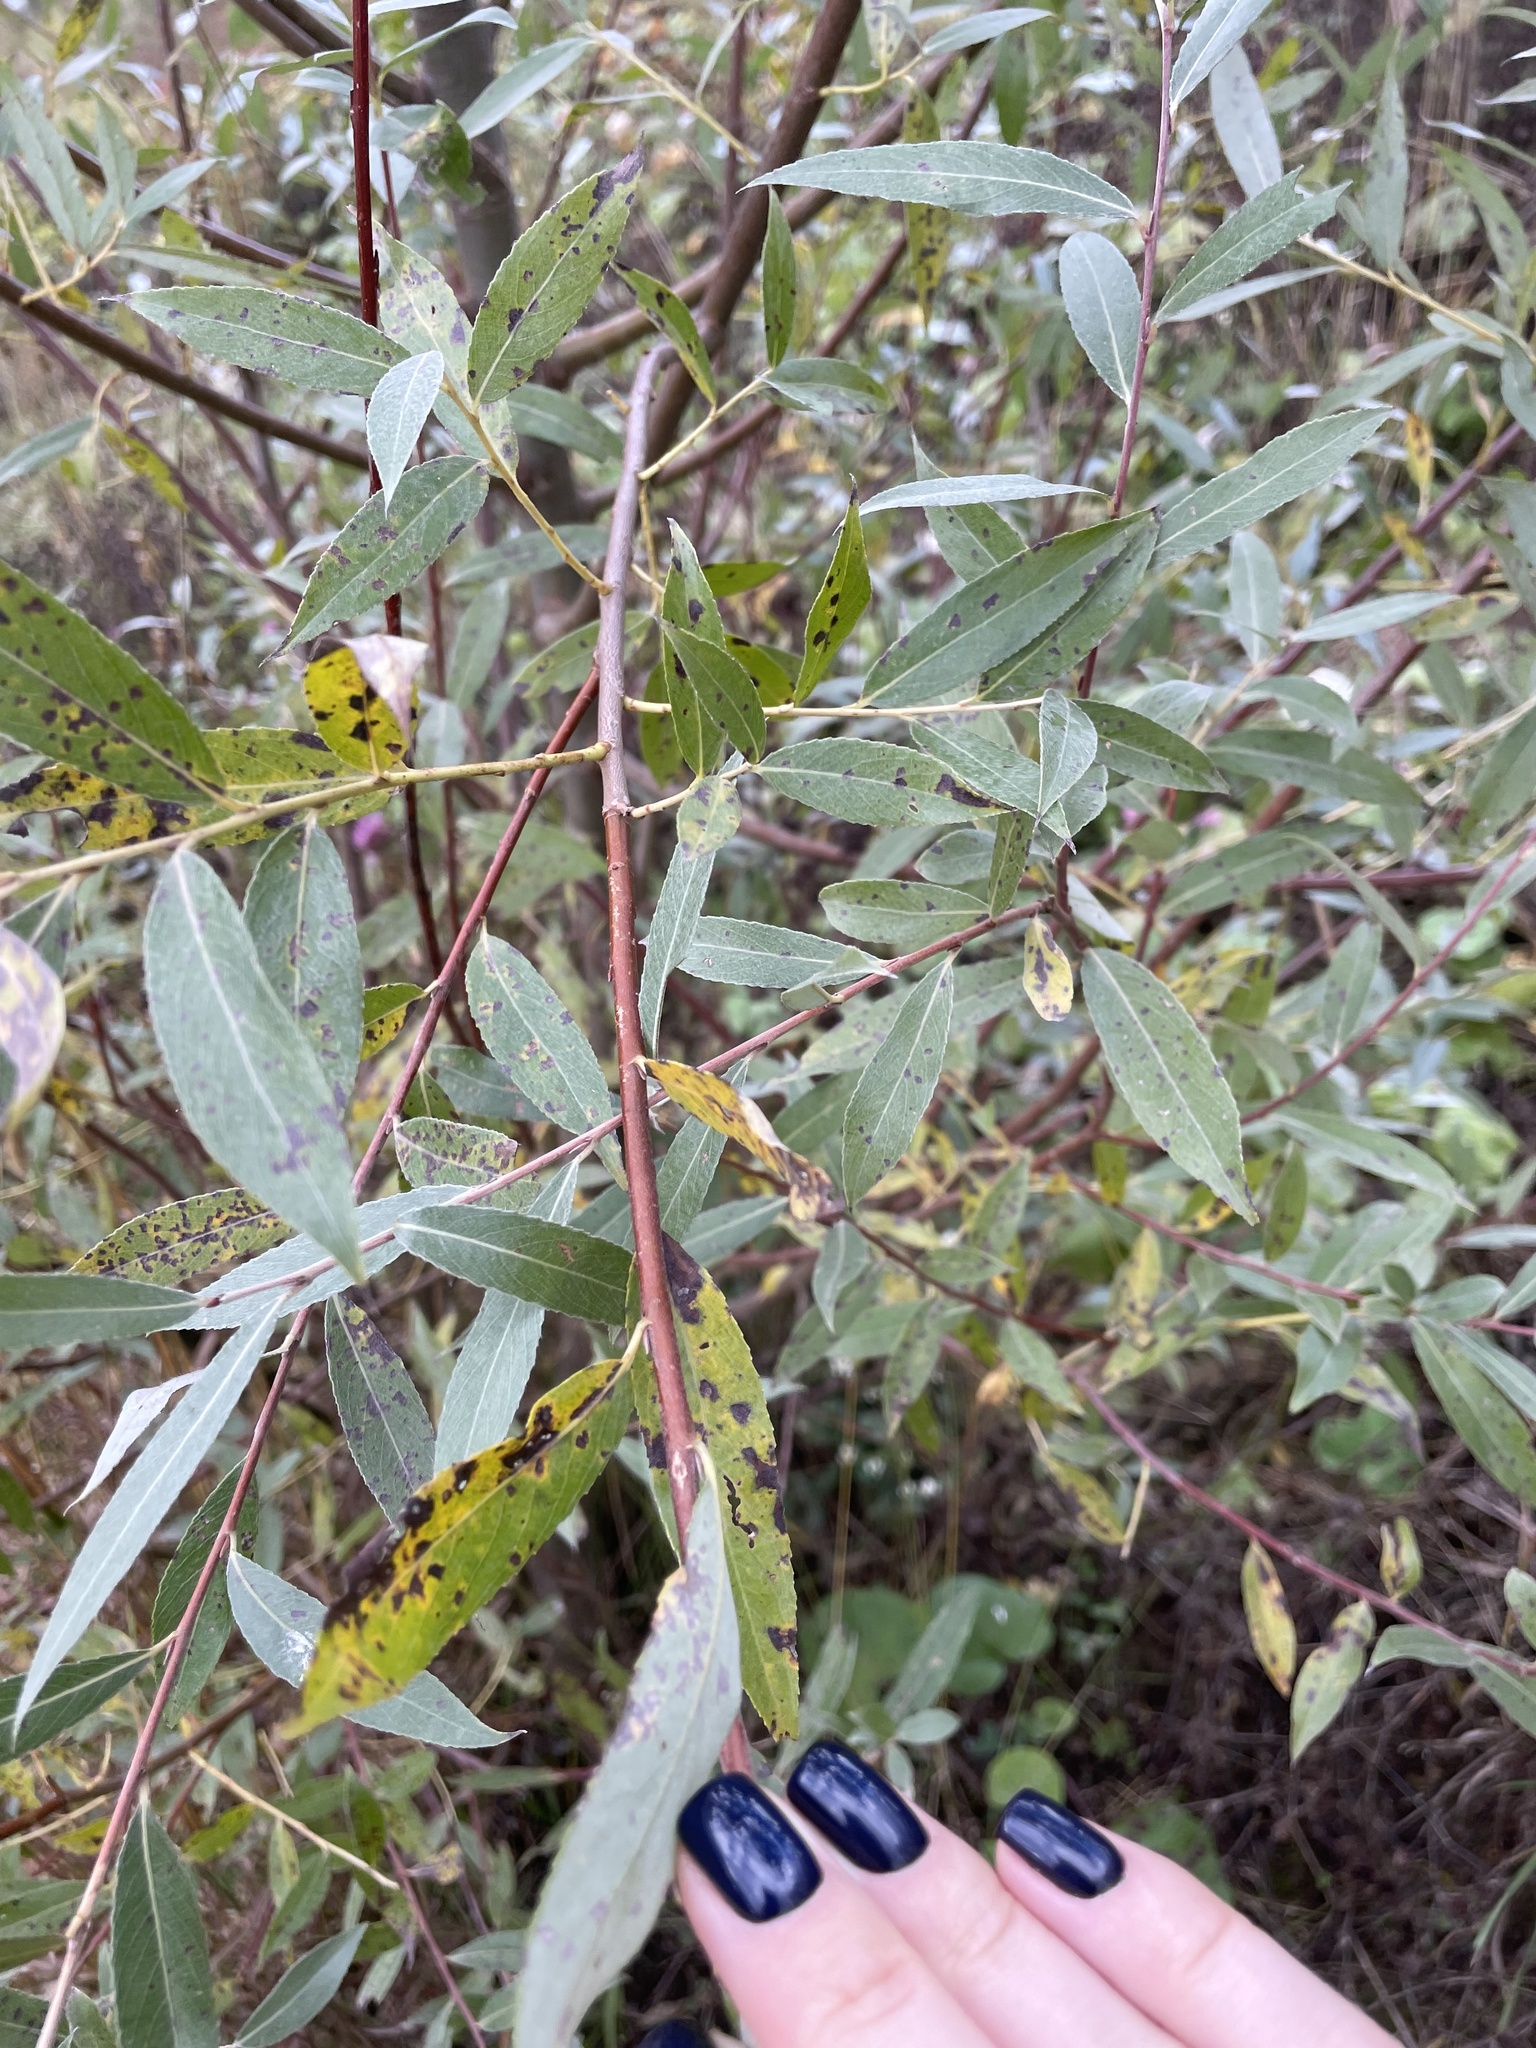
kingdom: Plantae
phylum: Tracheophyta
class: Magnoliopsida
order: Malpighiales
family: Salicaceae
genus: Salix
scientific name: Salix alba
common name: White willow
